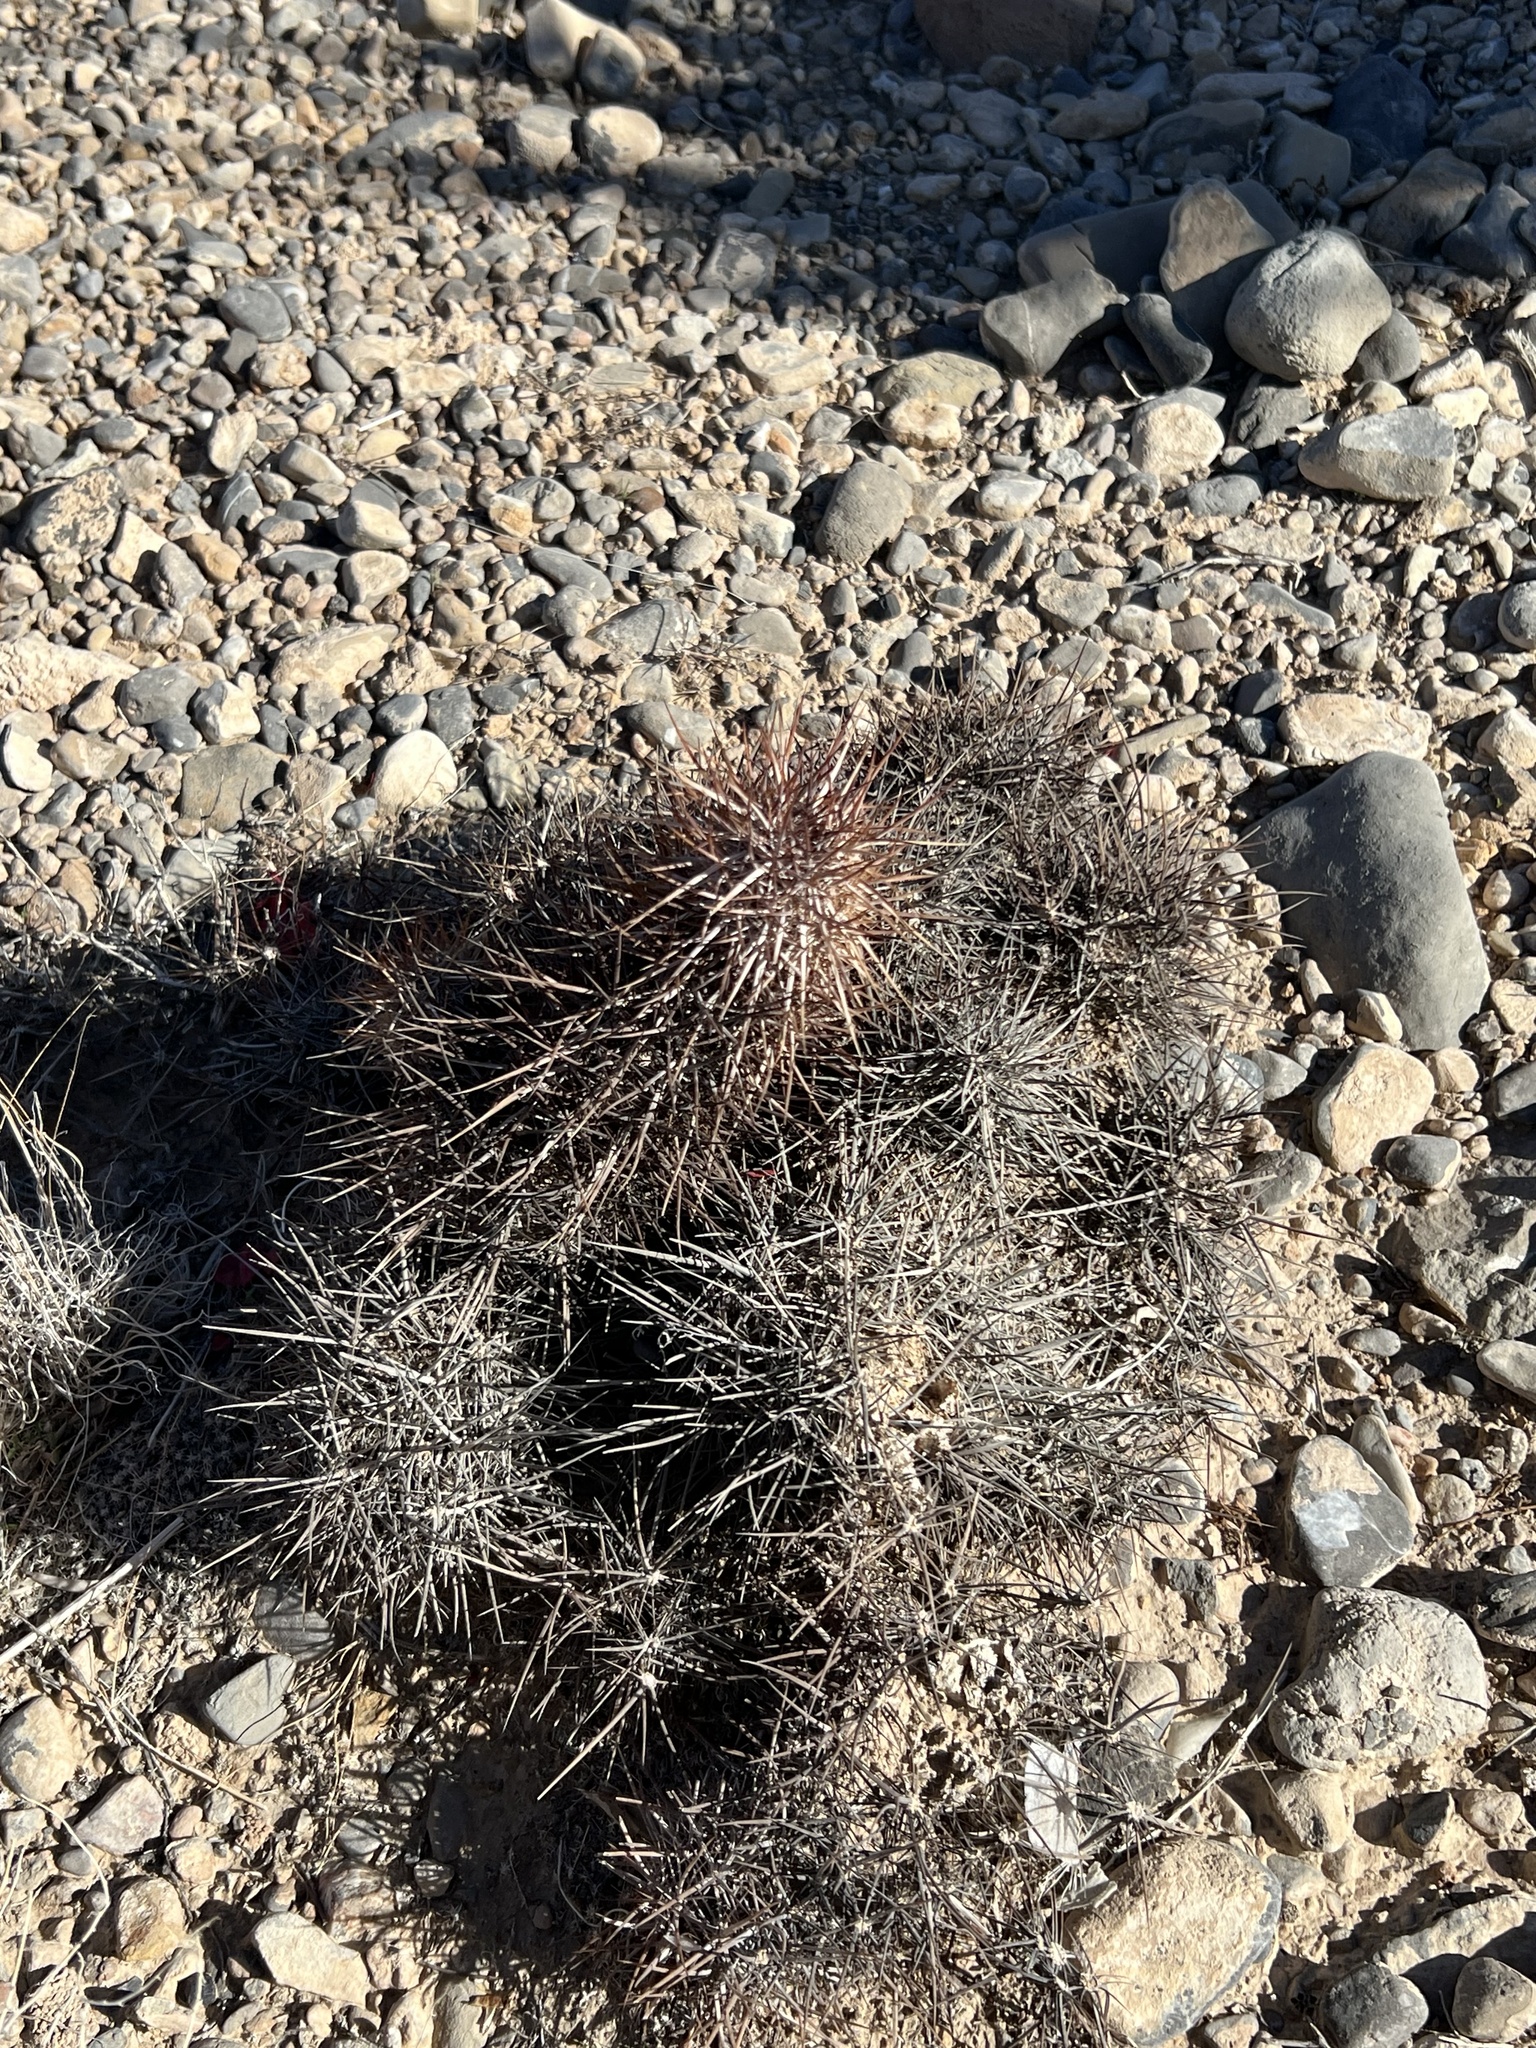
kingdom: Plantae
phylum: Tracheophyta
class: Magnoliopsida
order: Caryophyllales
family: Cactaceae
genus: Echinocereus
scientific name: Echinocereus engelmannii
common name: Engelmann's hedgehog cactus
